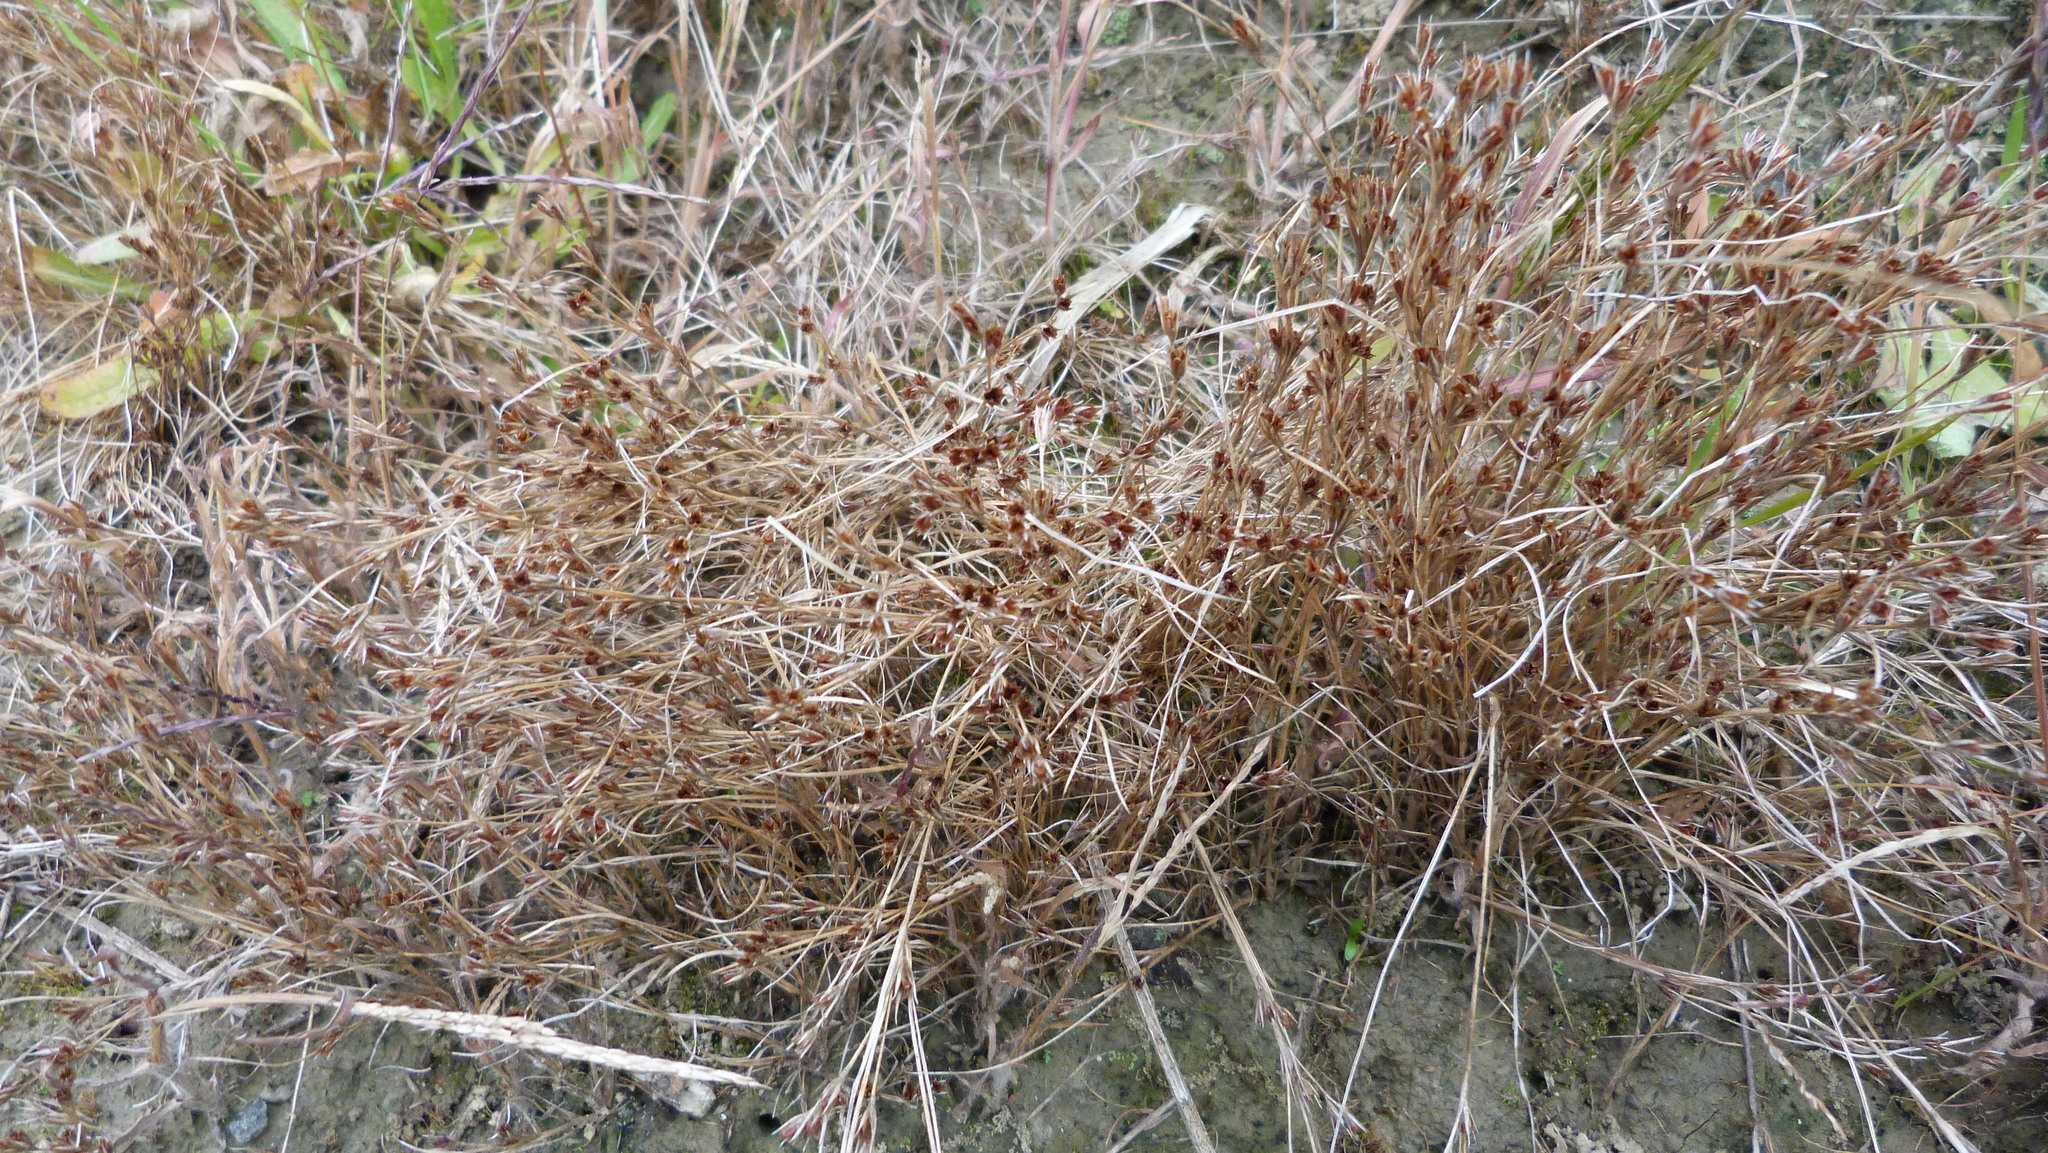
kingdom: Plantae
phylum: Tracheophyta
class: Liliopsida
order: Poales
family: Juncaceae
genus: Juncus
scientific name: Juncus bufonius
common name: Toad rush
